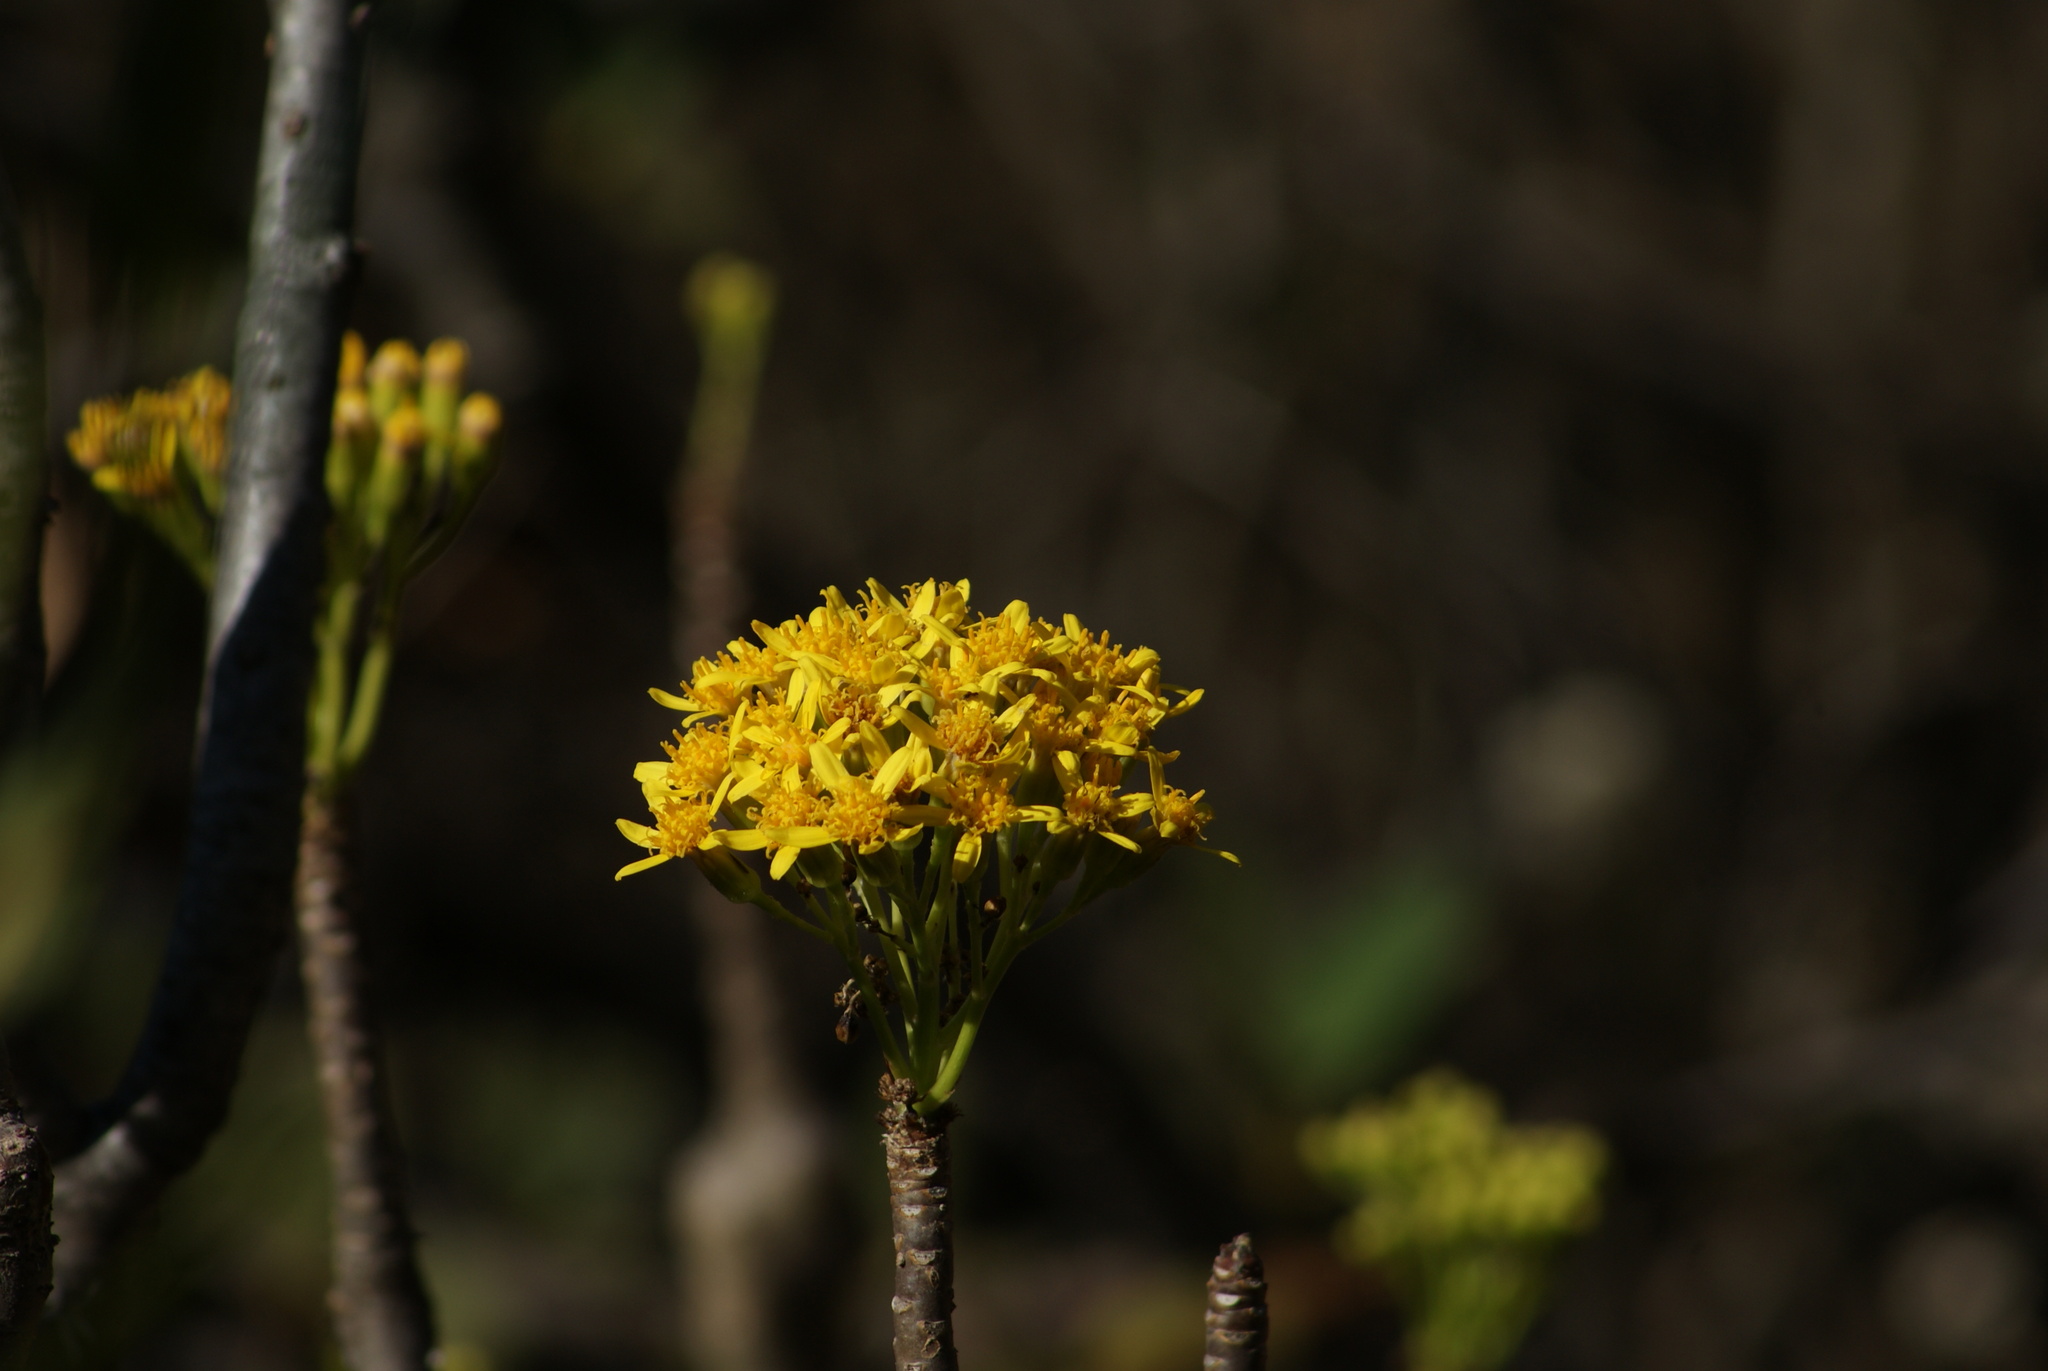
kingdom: Plantae
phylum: Tracheophyta
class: Magnoliopsida
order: Asterales
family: Asteraceae
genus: Pittocaulon
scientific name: Pittocaulon praecox
